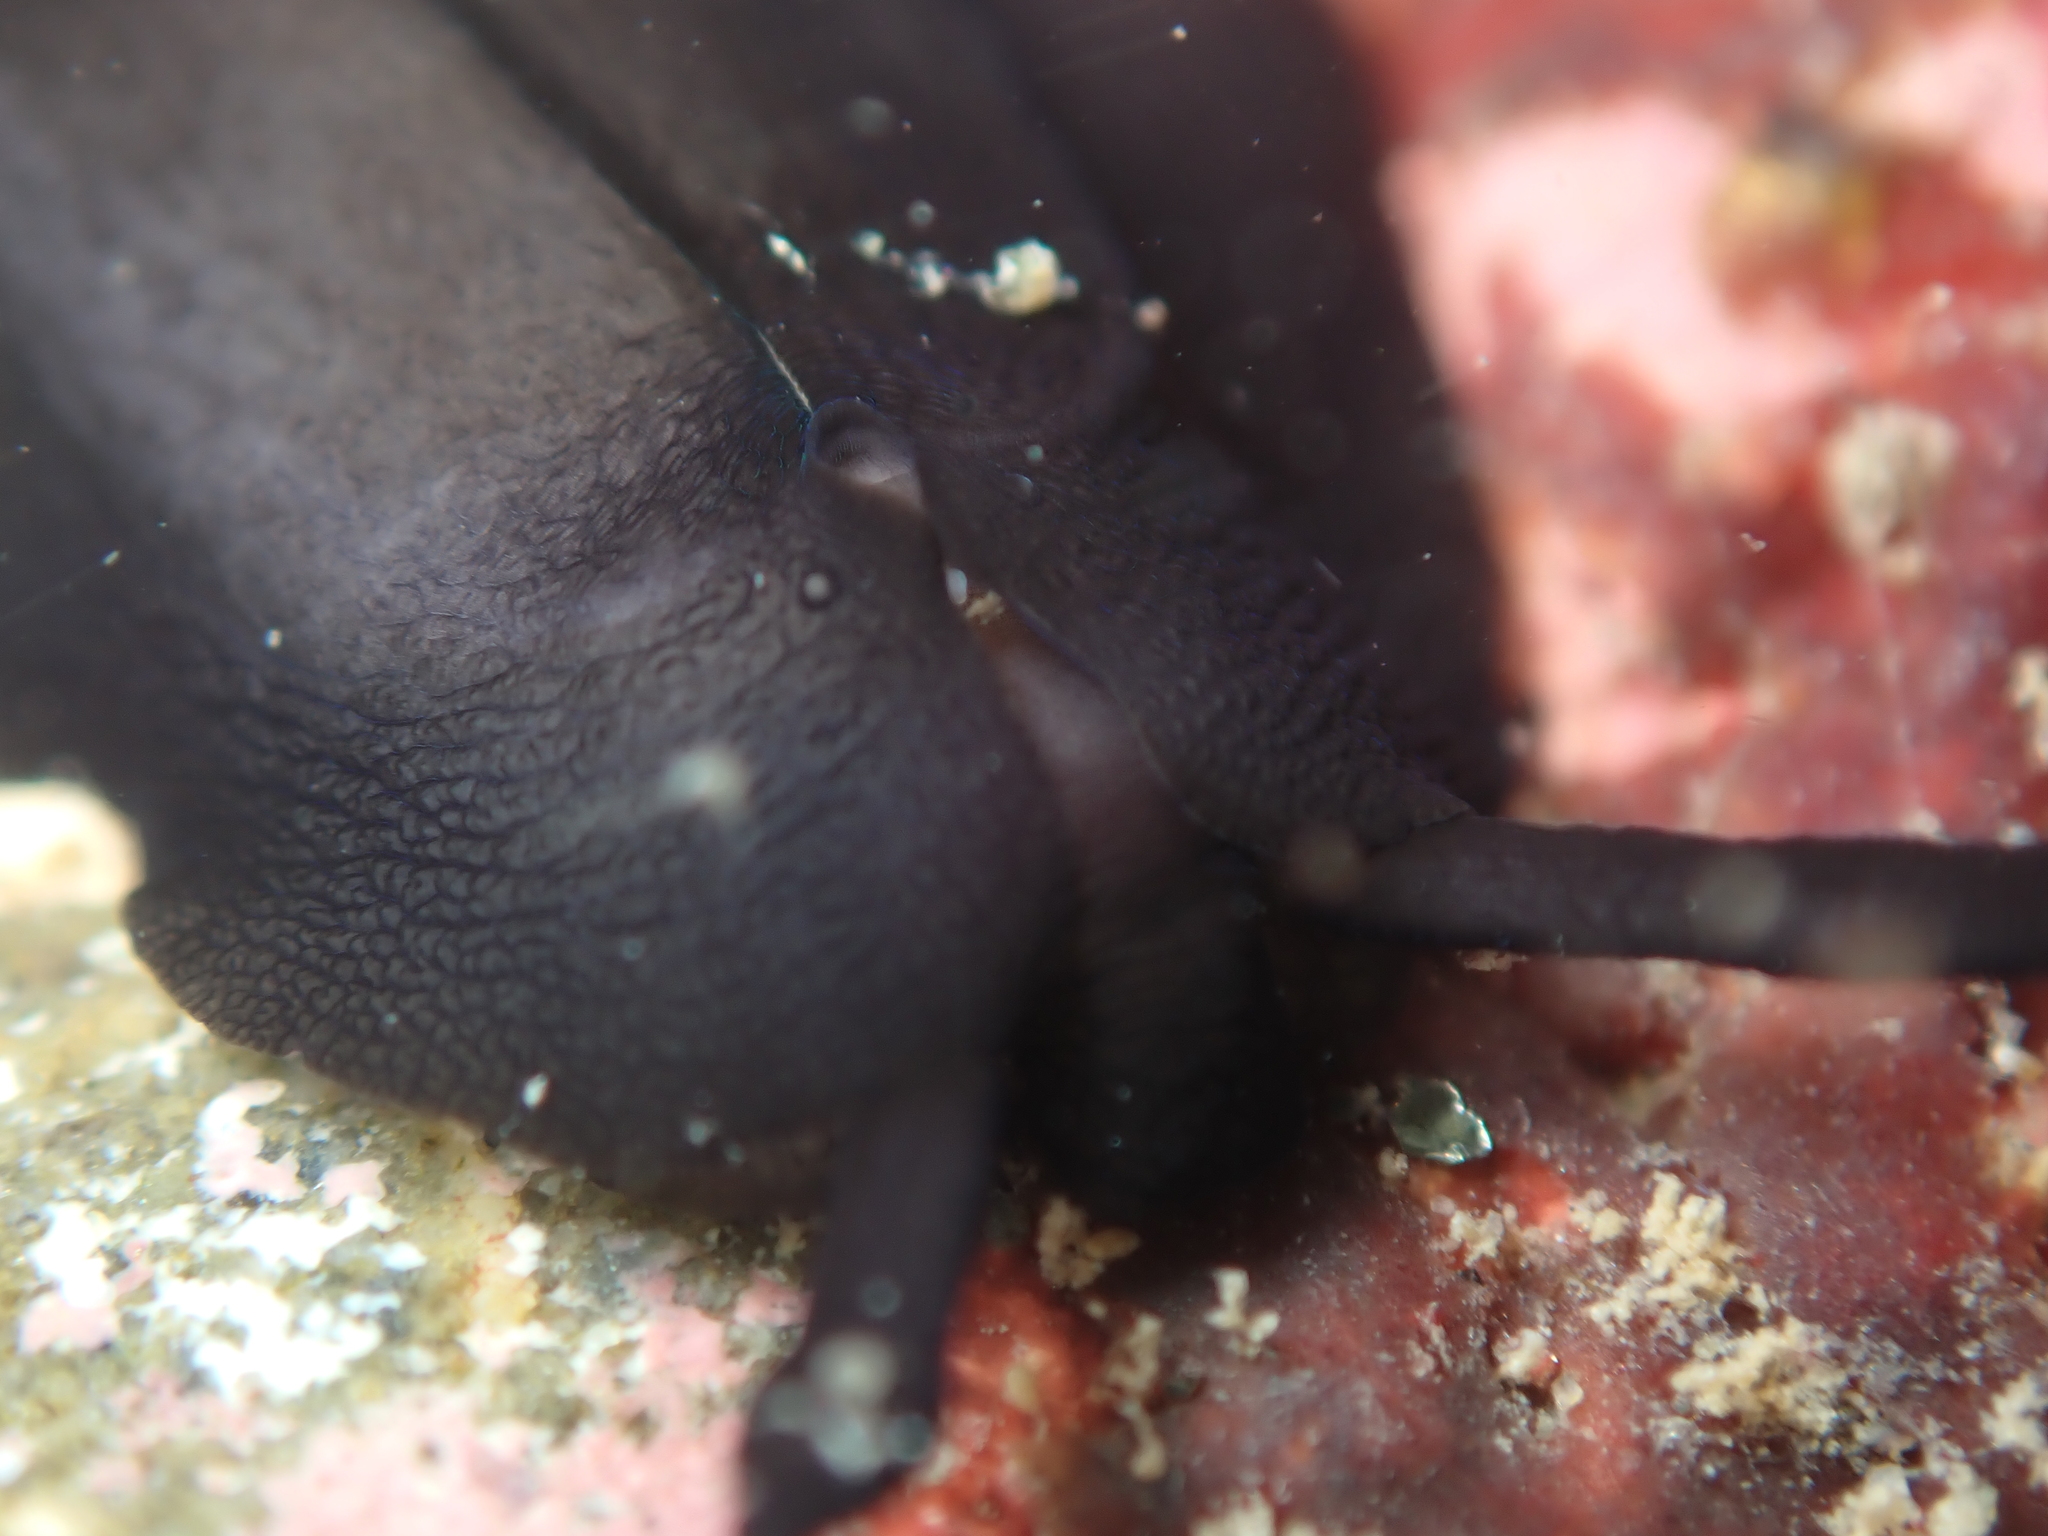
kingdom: Animalia
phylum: Mollusca
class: Gastropoda
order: Lepetellida
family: Fissurellidae
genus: Scutus
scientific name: Scutus breviculus
